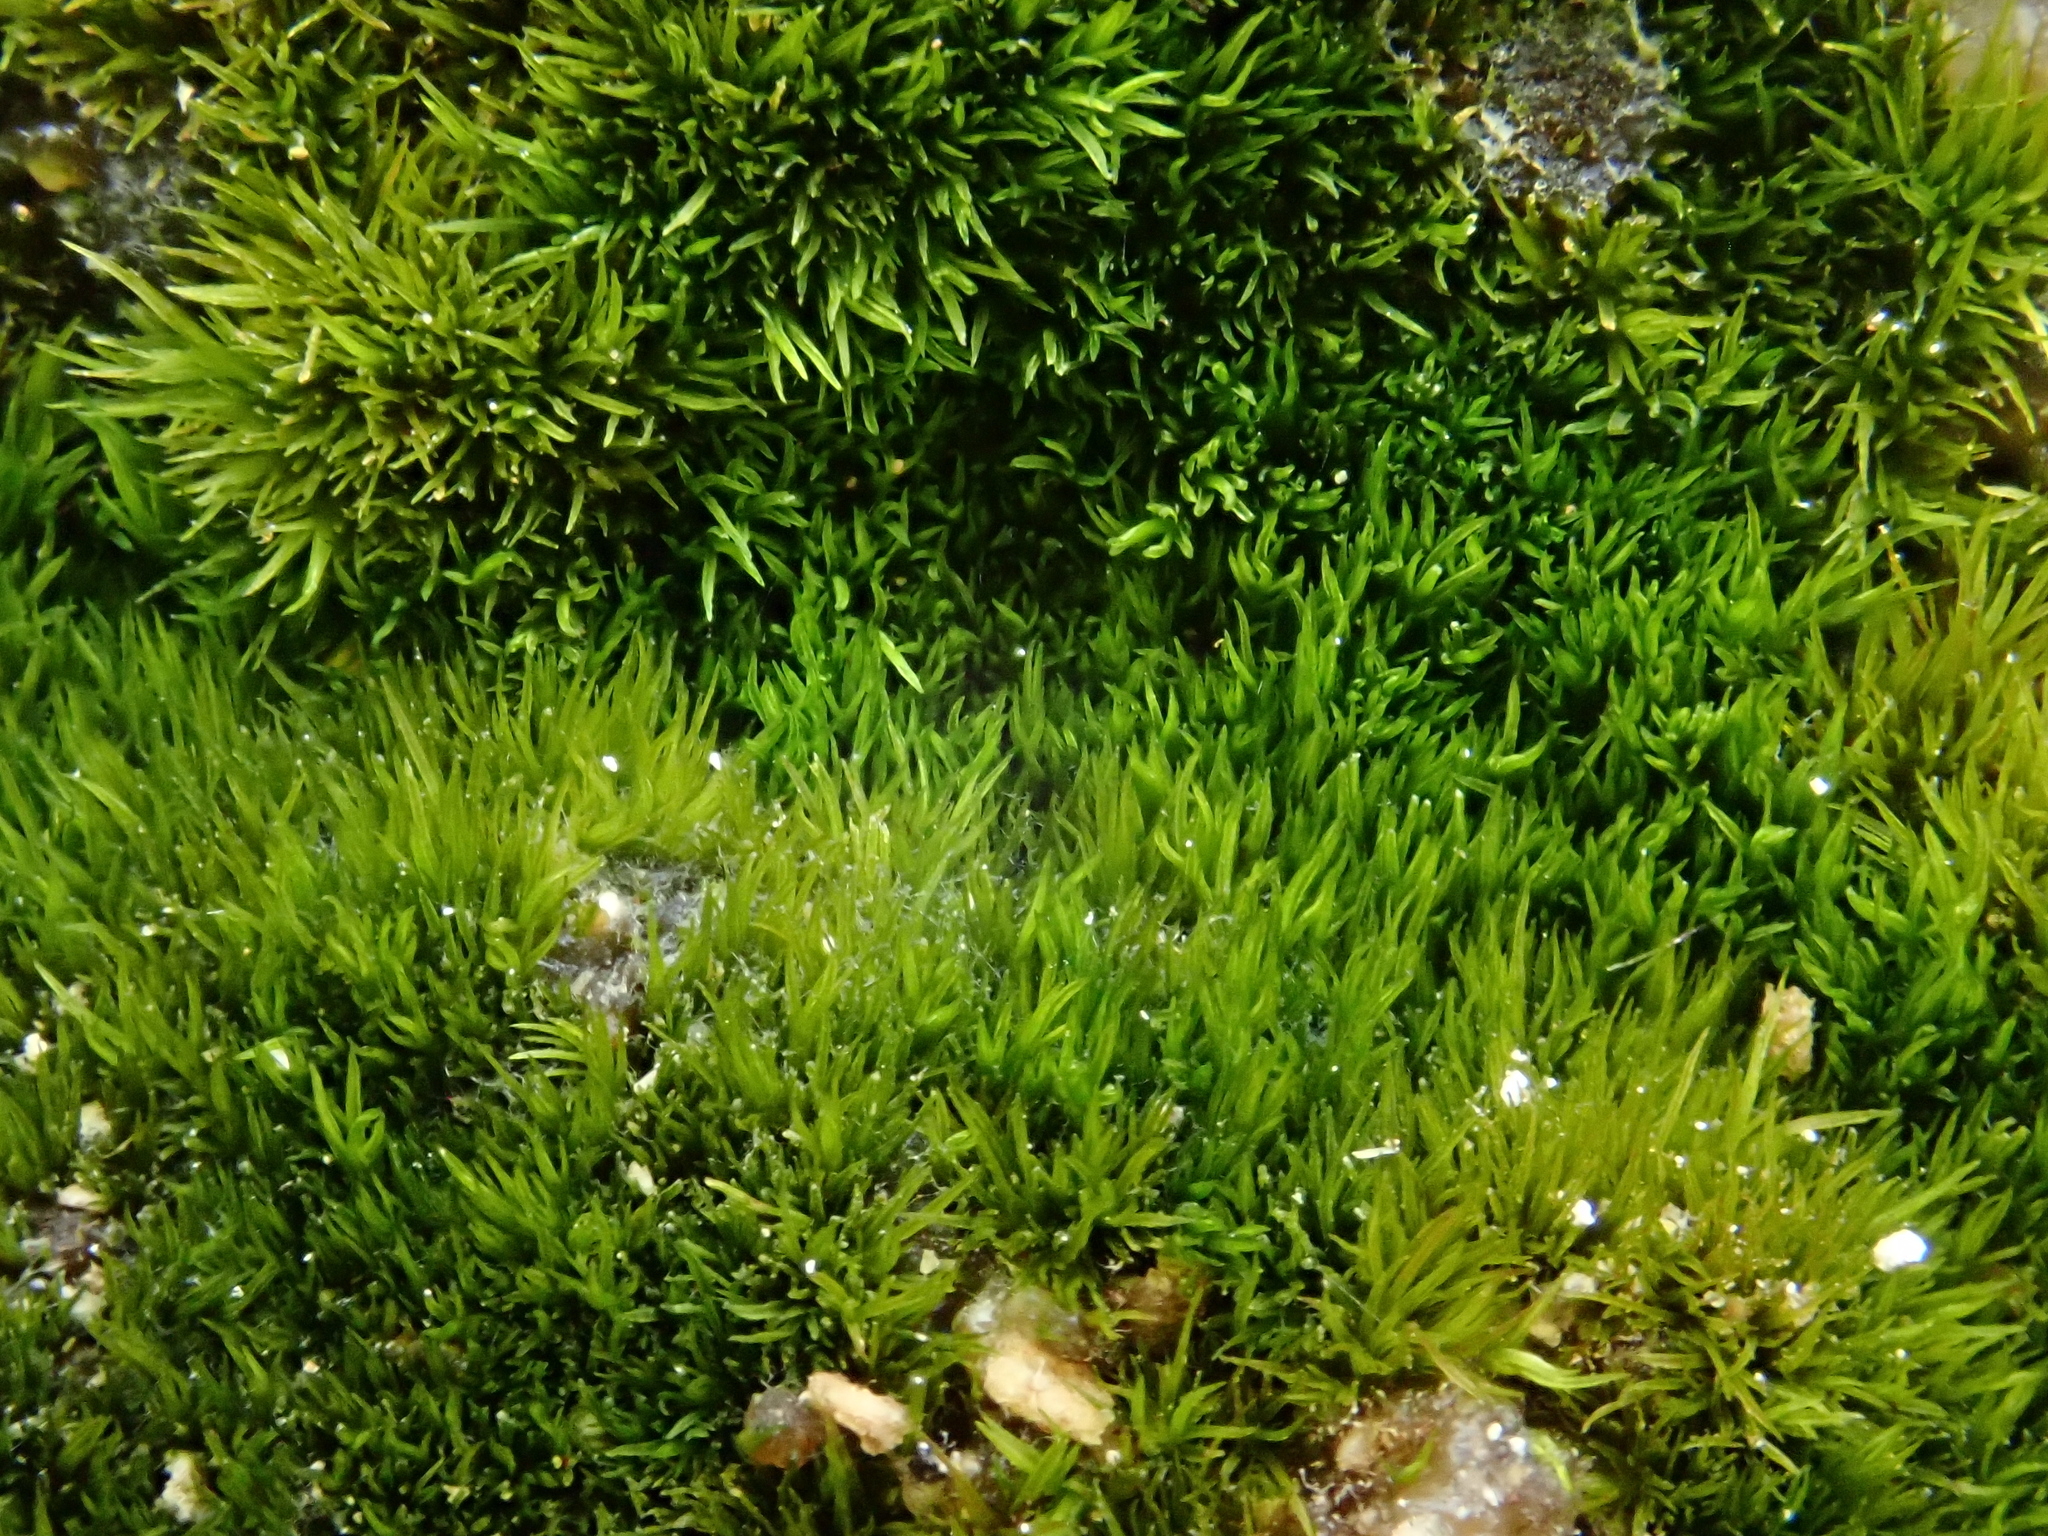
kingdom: Plantae
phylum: Bryophyta
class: Bryopsida
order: Pottiales
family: Pottiaceae
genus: Eucladium
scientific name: Eucladium verticillatum
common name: Whorled tufa-moss
